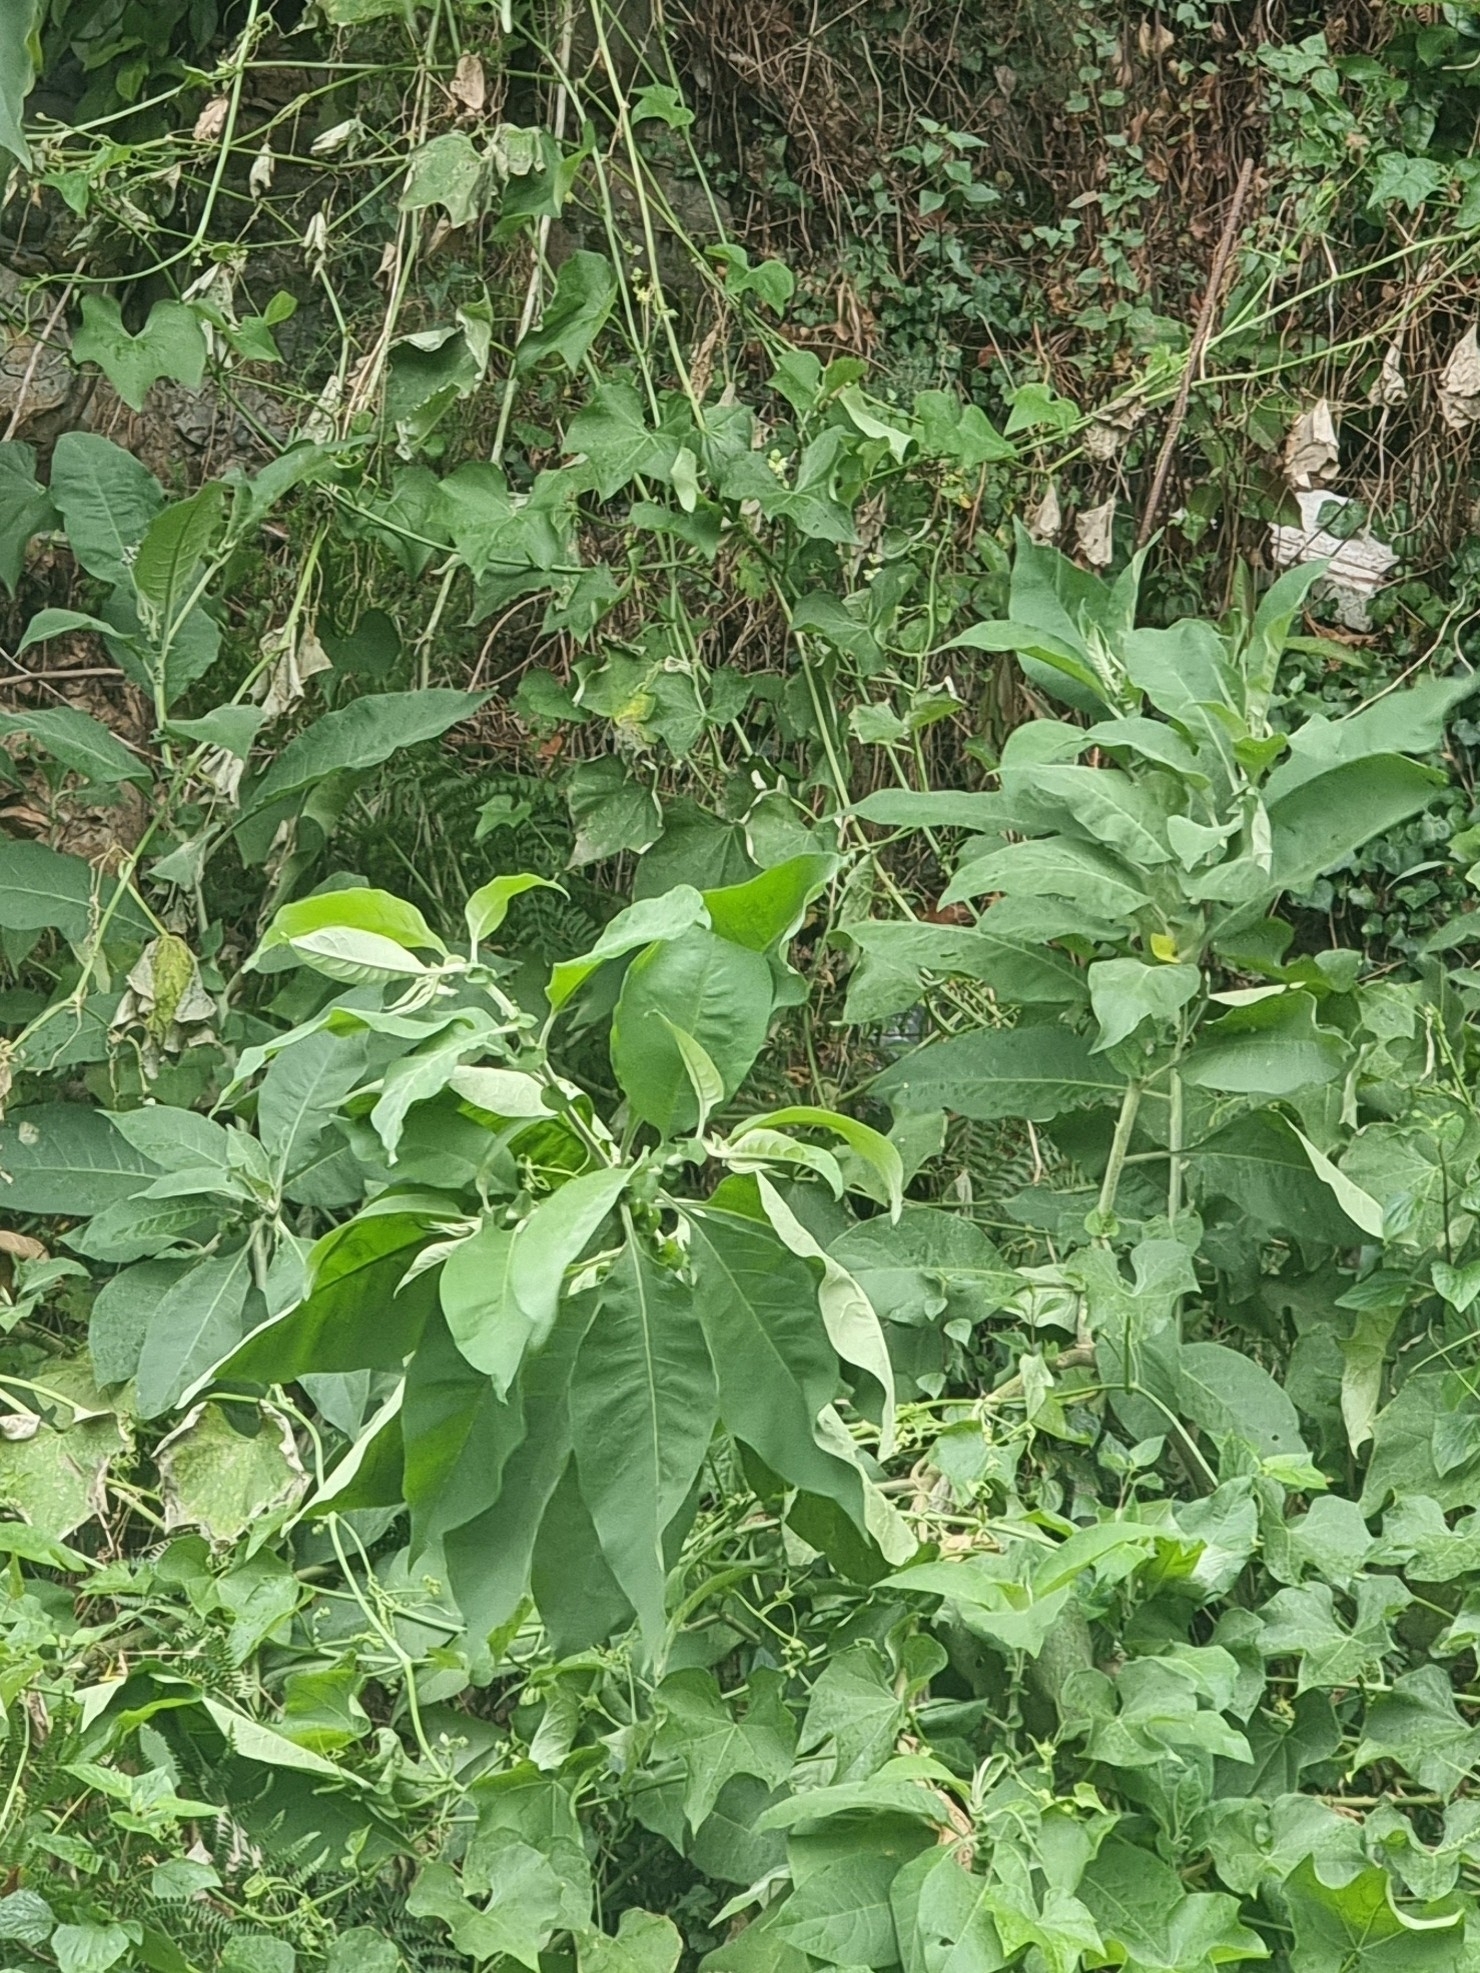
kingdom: Plantae
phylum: Tracheophyta
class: Magnoliopsida
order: Solanales
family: Solanaceae
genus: Solanum
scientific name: Solanum mauritianum
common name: Earleaf nightshade
